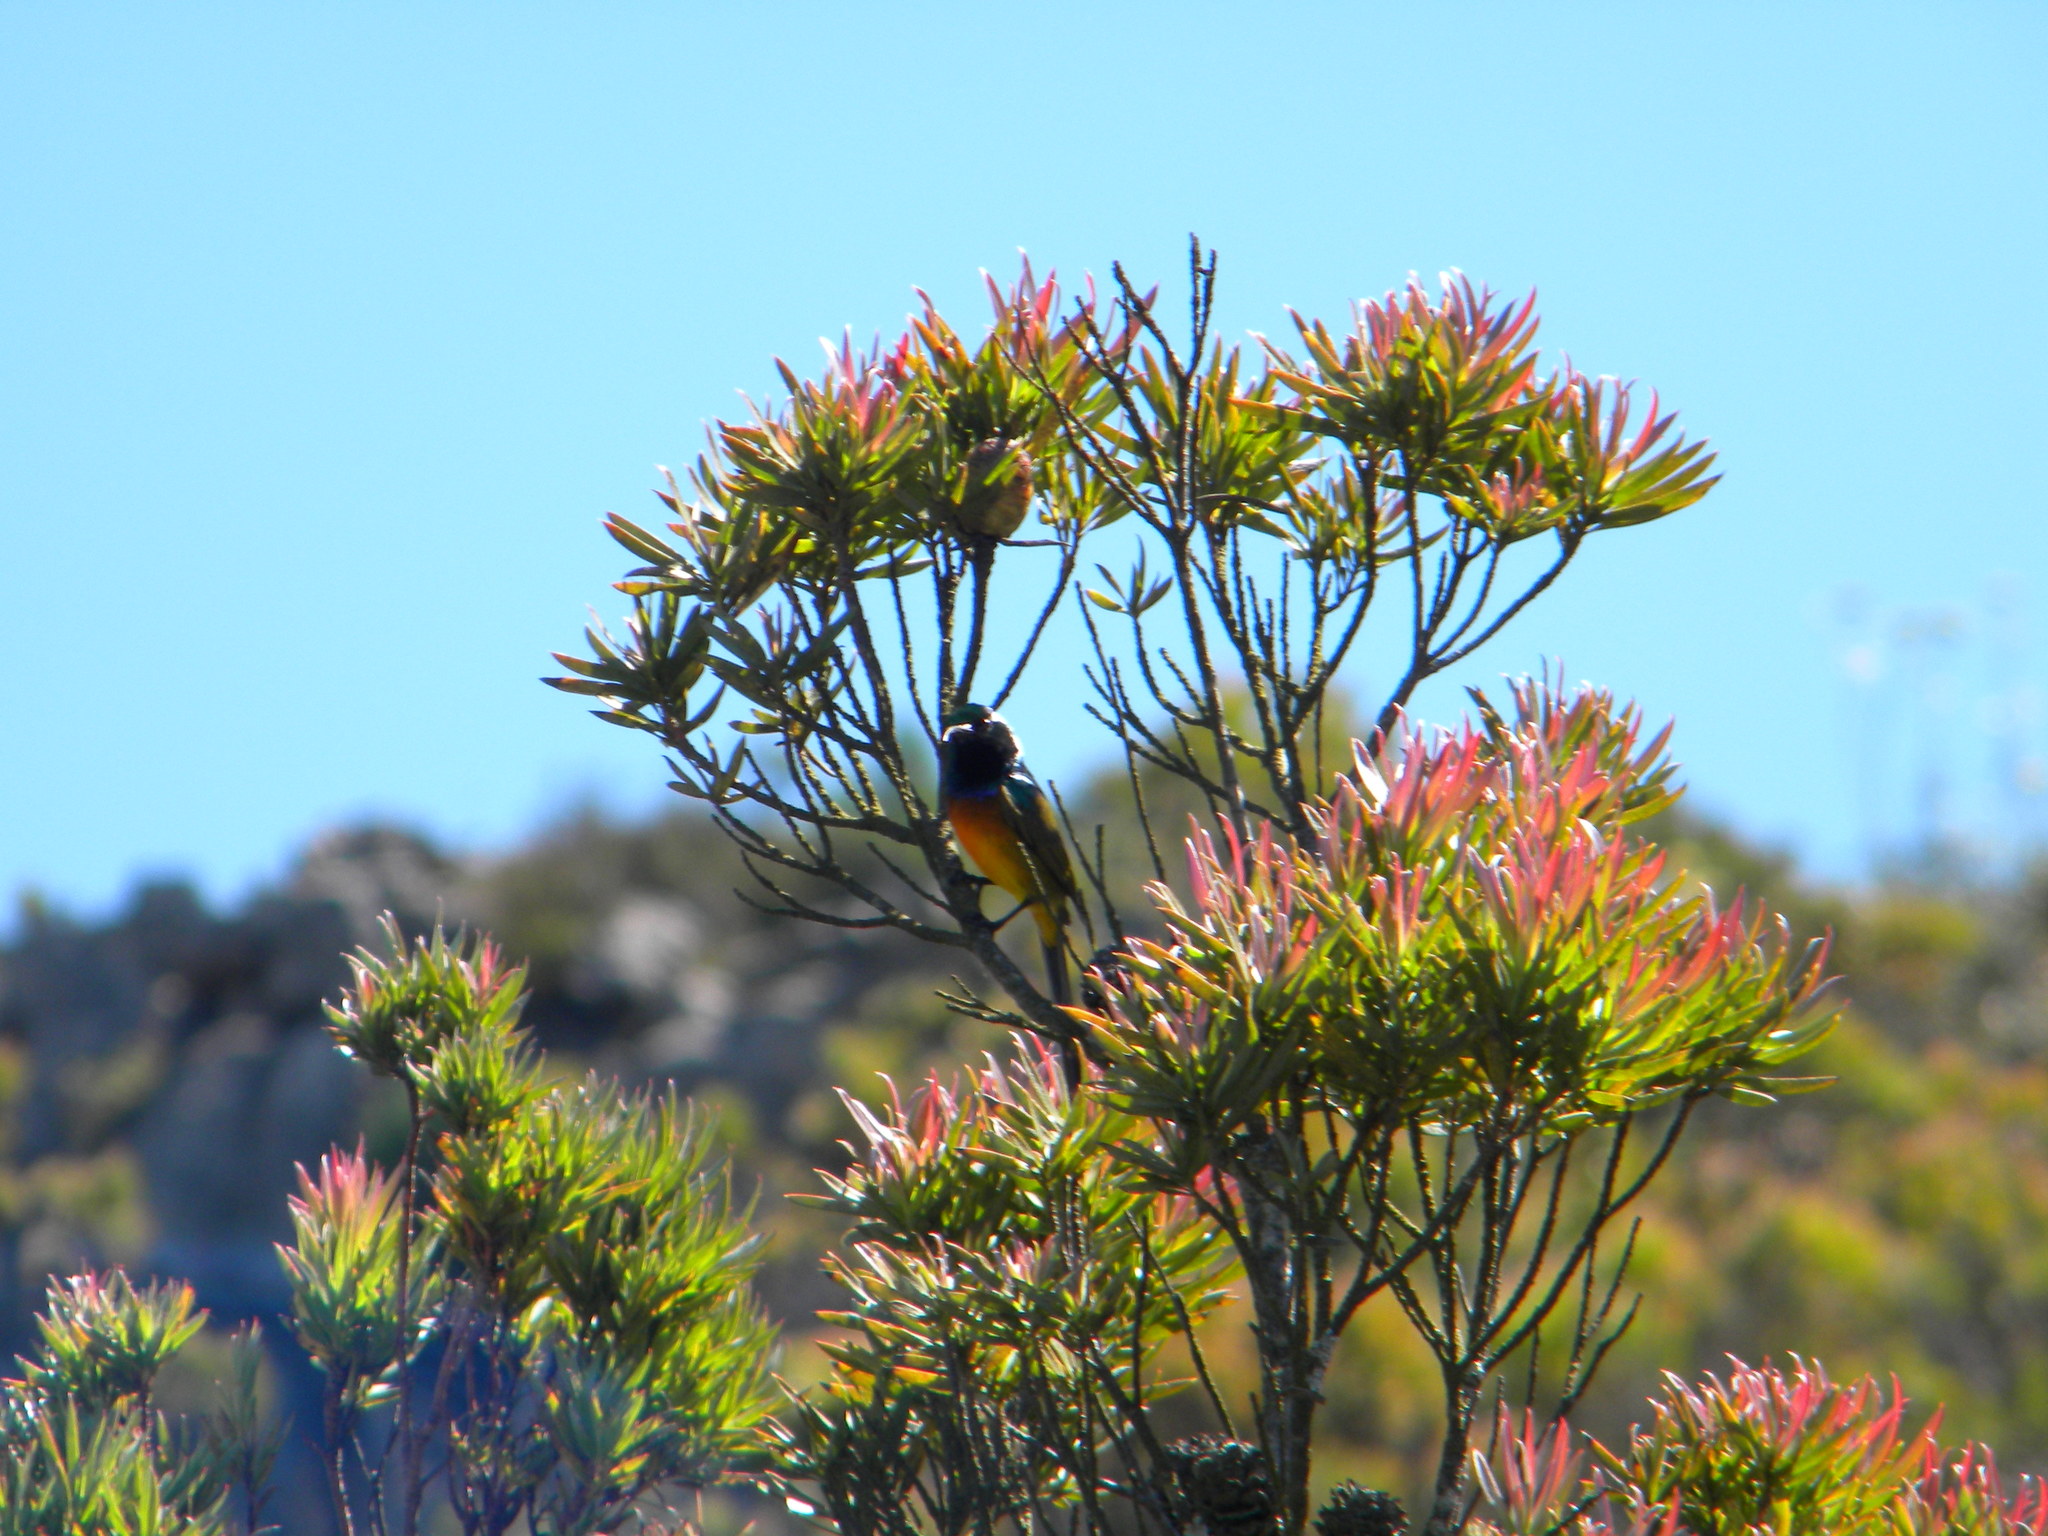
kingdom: Animalia
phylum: Chordata
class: Aves
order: Passeriformes
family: Nectariniidae
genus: Anthobaphes
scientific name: Anthobaphes violacea
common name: Orange-breasted sunbird
